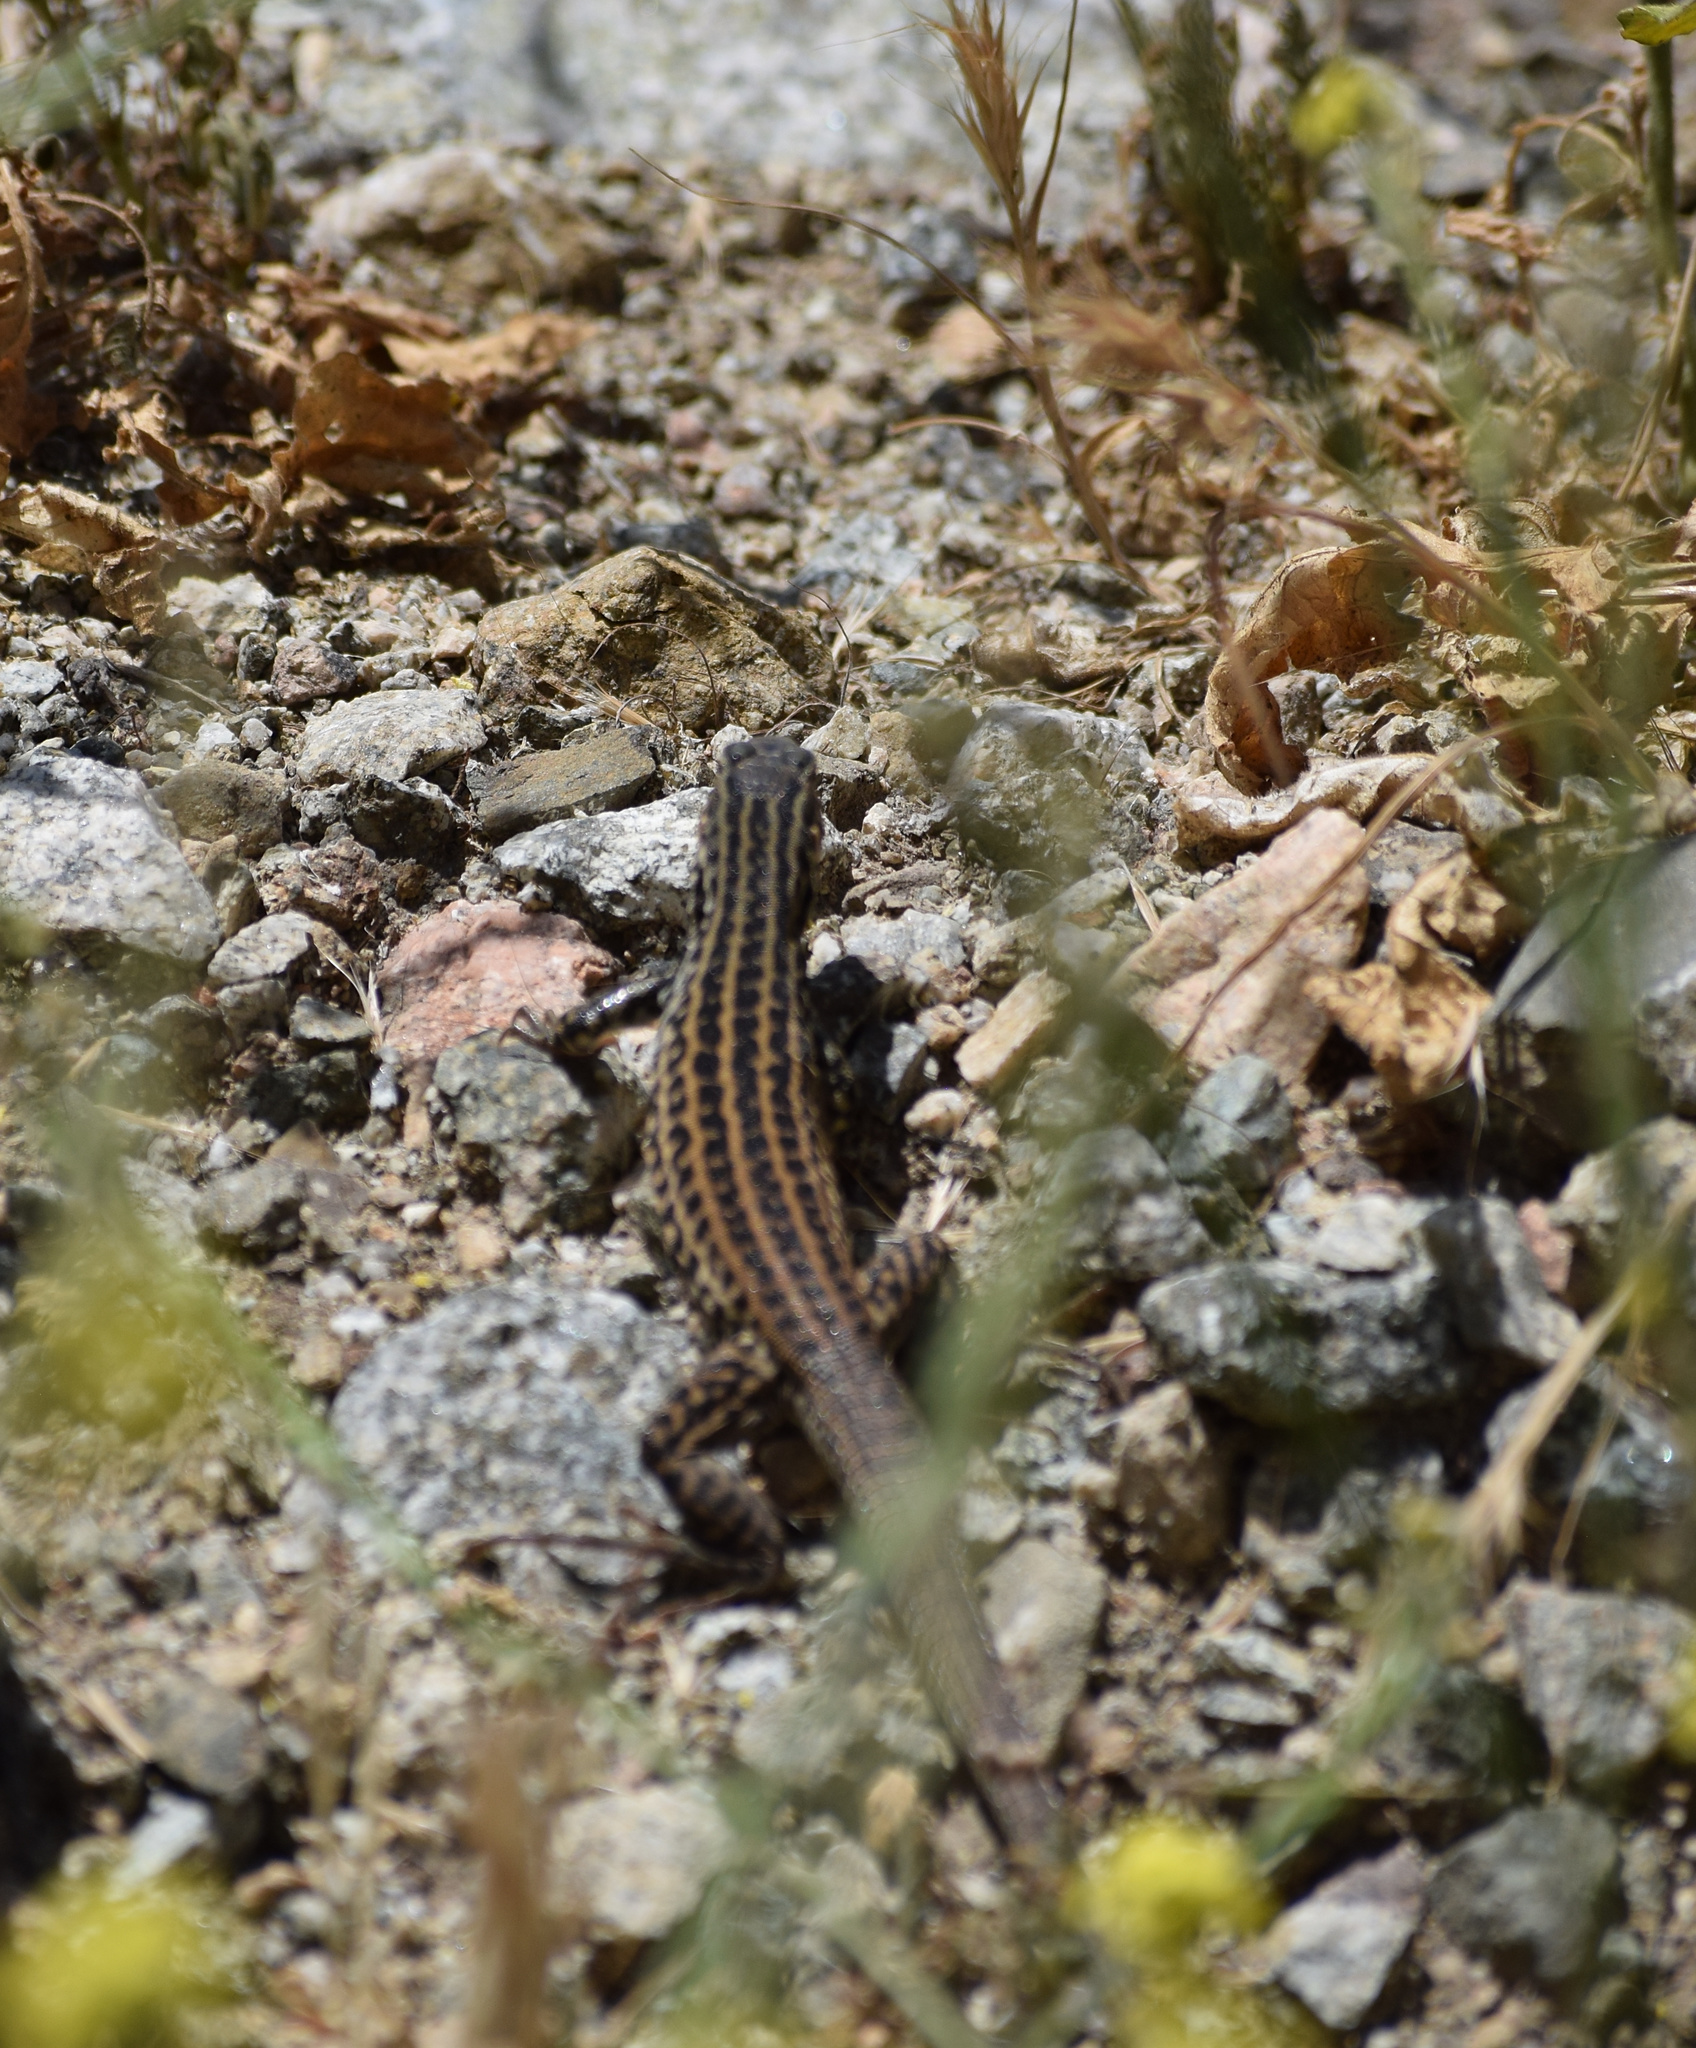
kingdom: Animalia
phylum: Chordata
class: Squamata
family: Teiidae
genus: Aspidoscelis
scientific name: Aspidoscelis tigris
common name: Tiger whiptail
